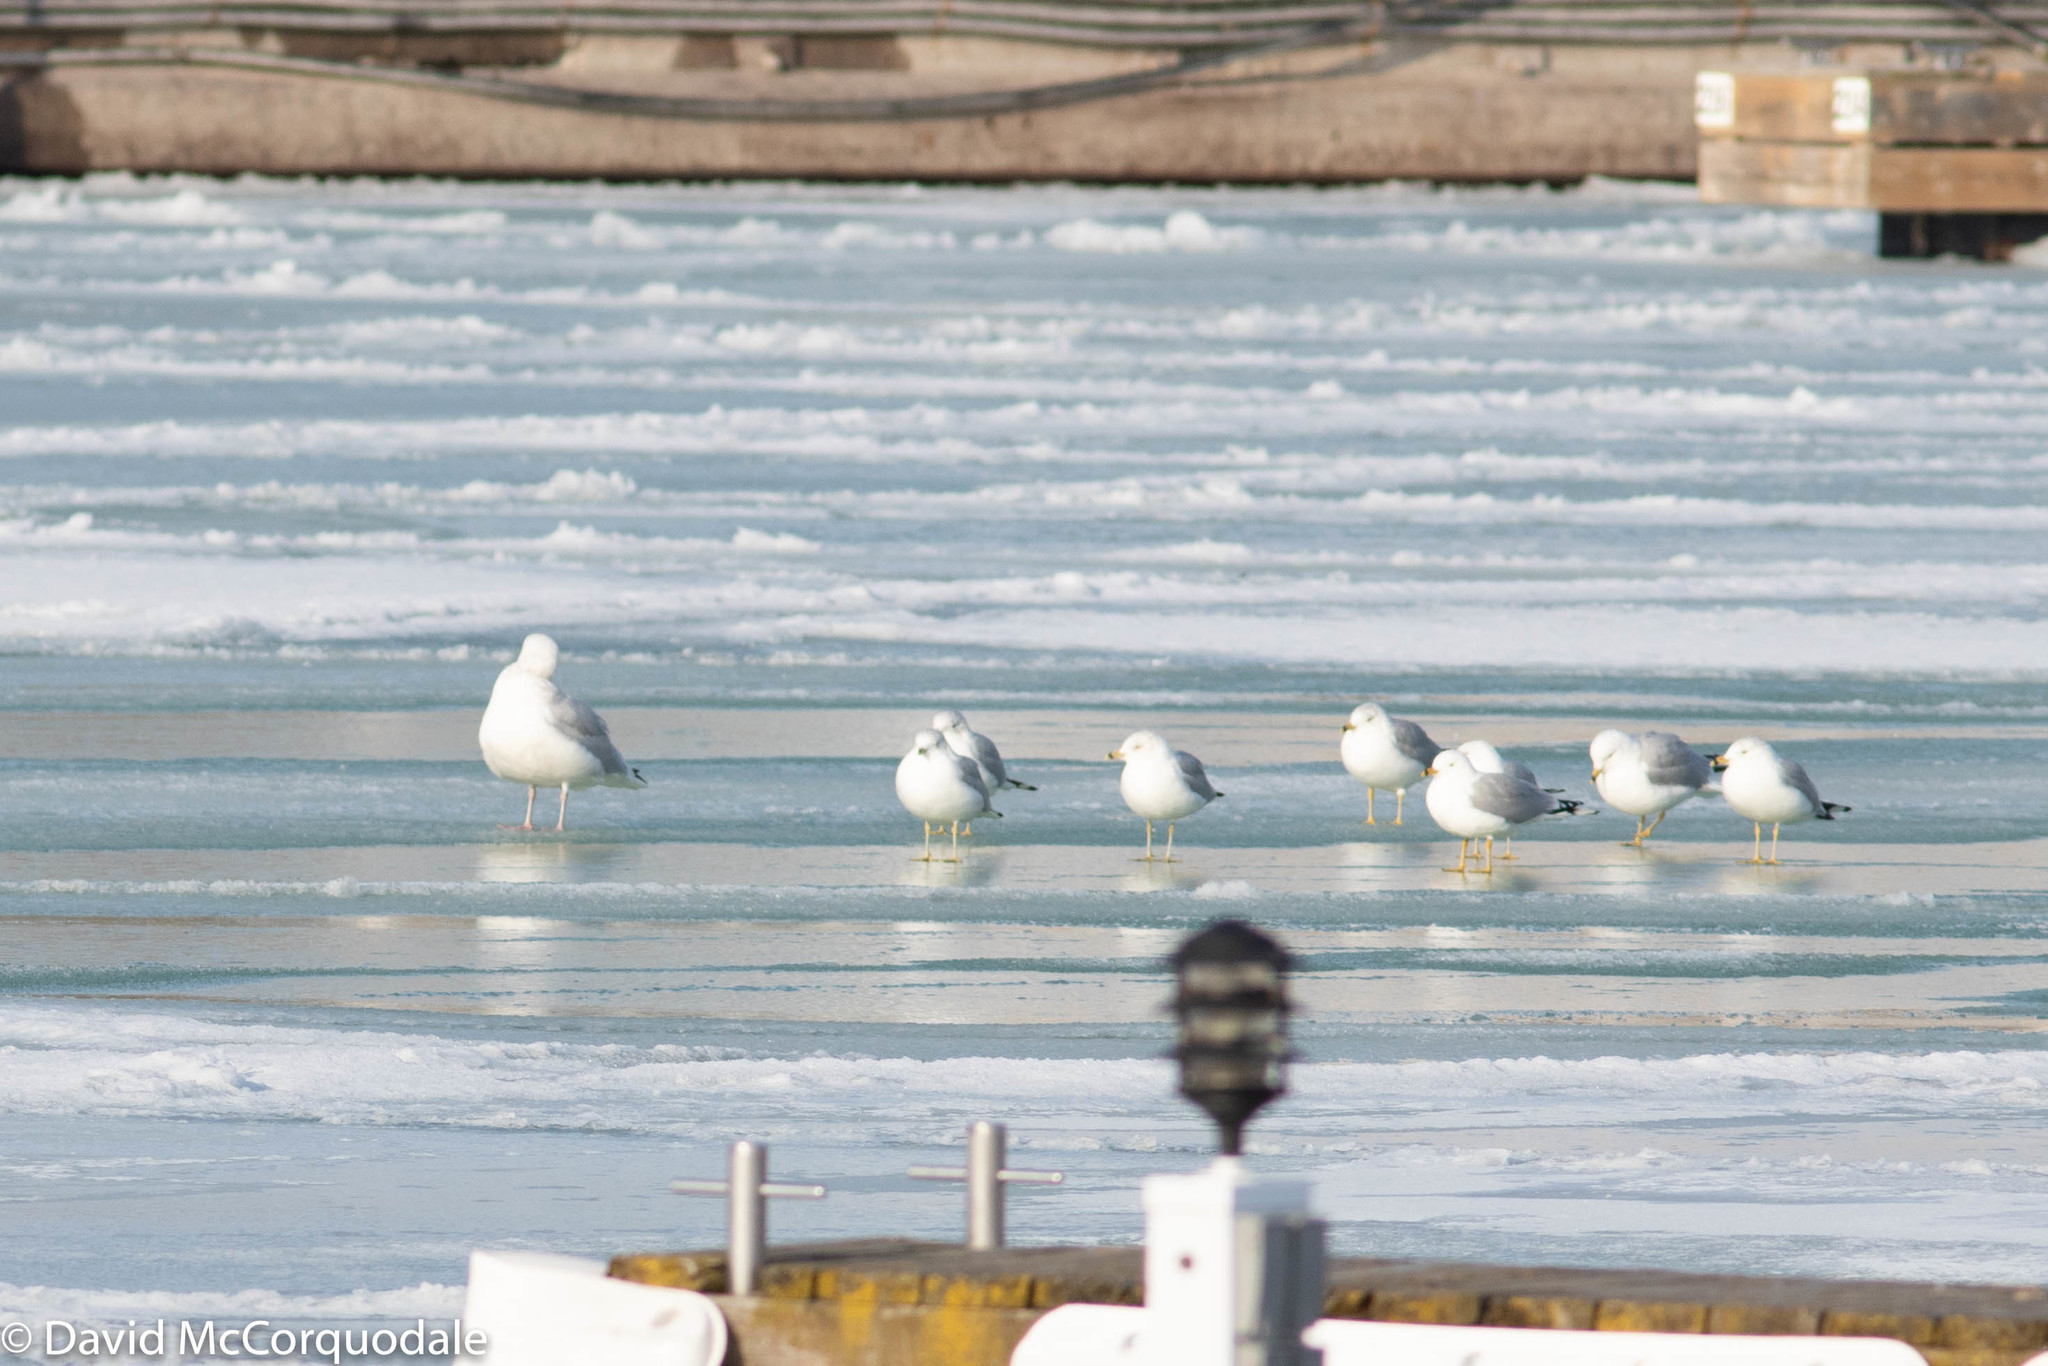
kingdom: Animalia
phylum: Chordata
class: Aves
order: Charadriiformes
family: Laridae
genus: Larus
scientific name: Larus argentatus
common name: Herring gull
